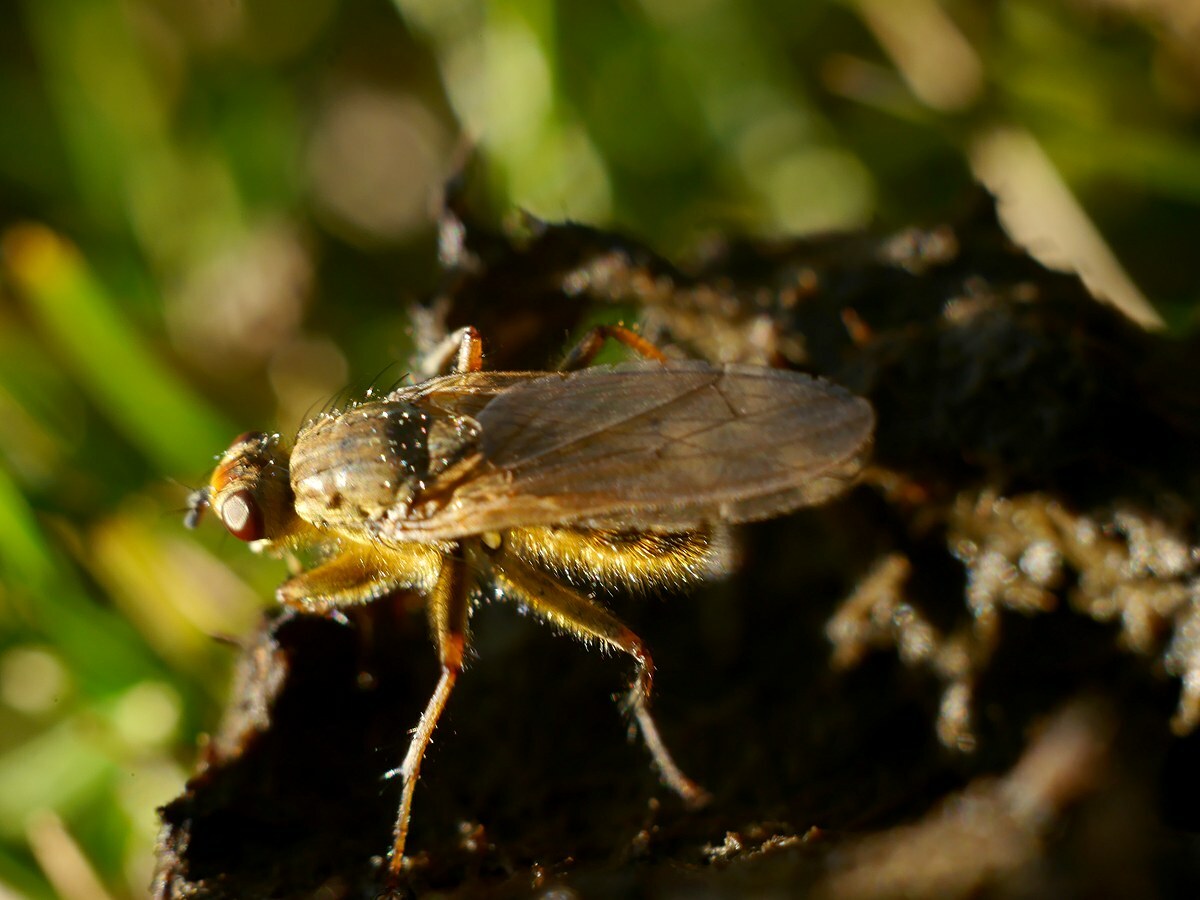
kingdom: Animalia
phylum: Arthropoda
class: Insecta
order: Diptera
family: Scathophagidae
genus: Scathophaga
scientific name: Scathophaga stercoraria
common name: Yellow dung fly
